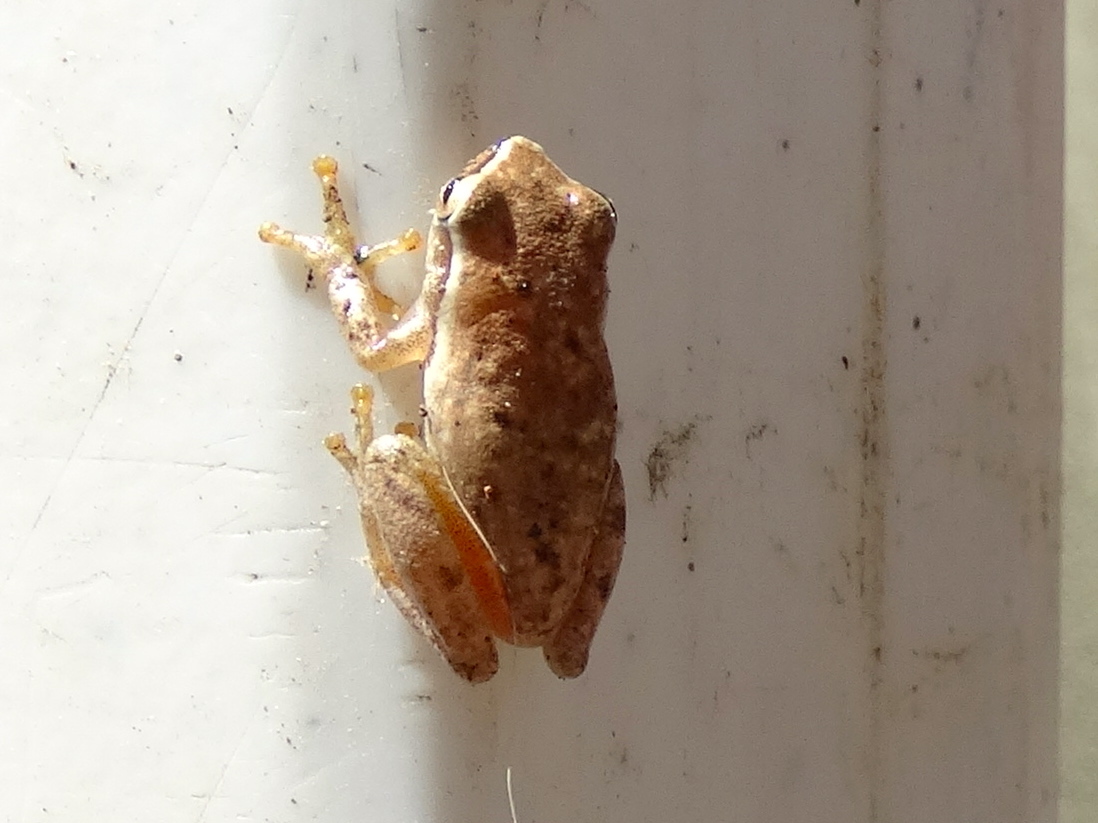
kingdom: Animalia
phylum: Chordata
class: Amphibia
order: Anura
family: Hylidae
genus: Tlalocohyla
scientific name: Tlalocohyla smithii
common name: Dwarf mexican treefrog
